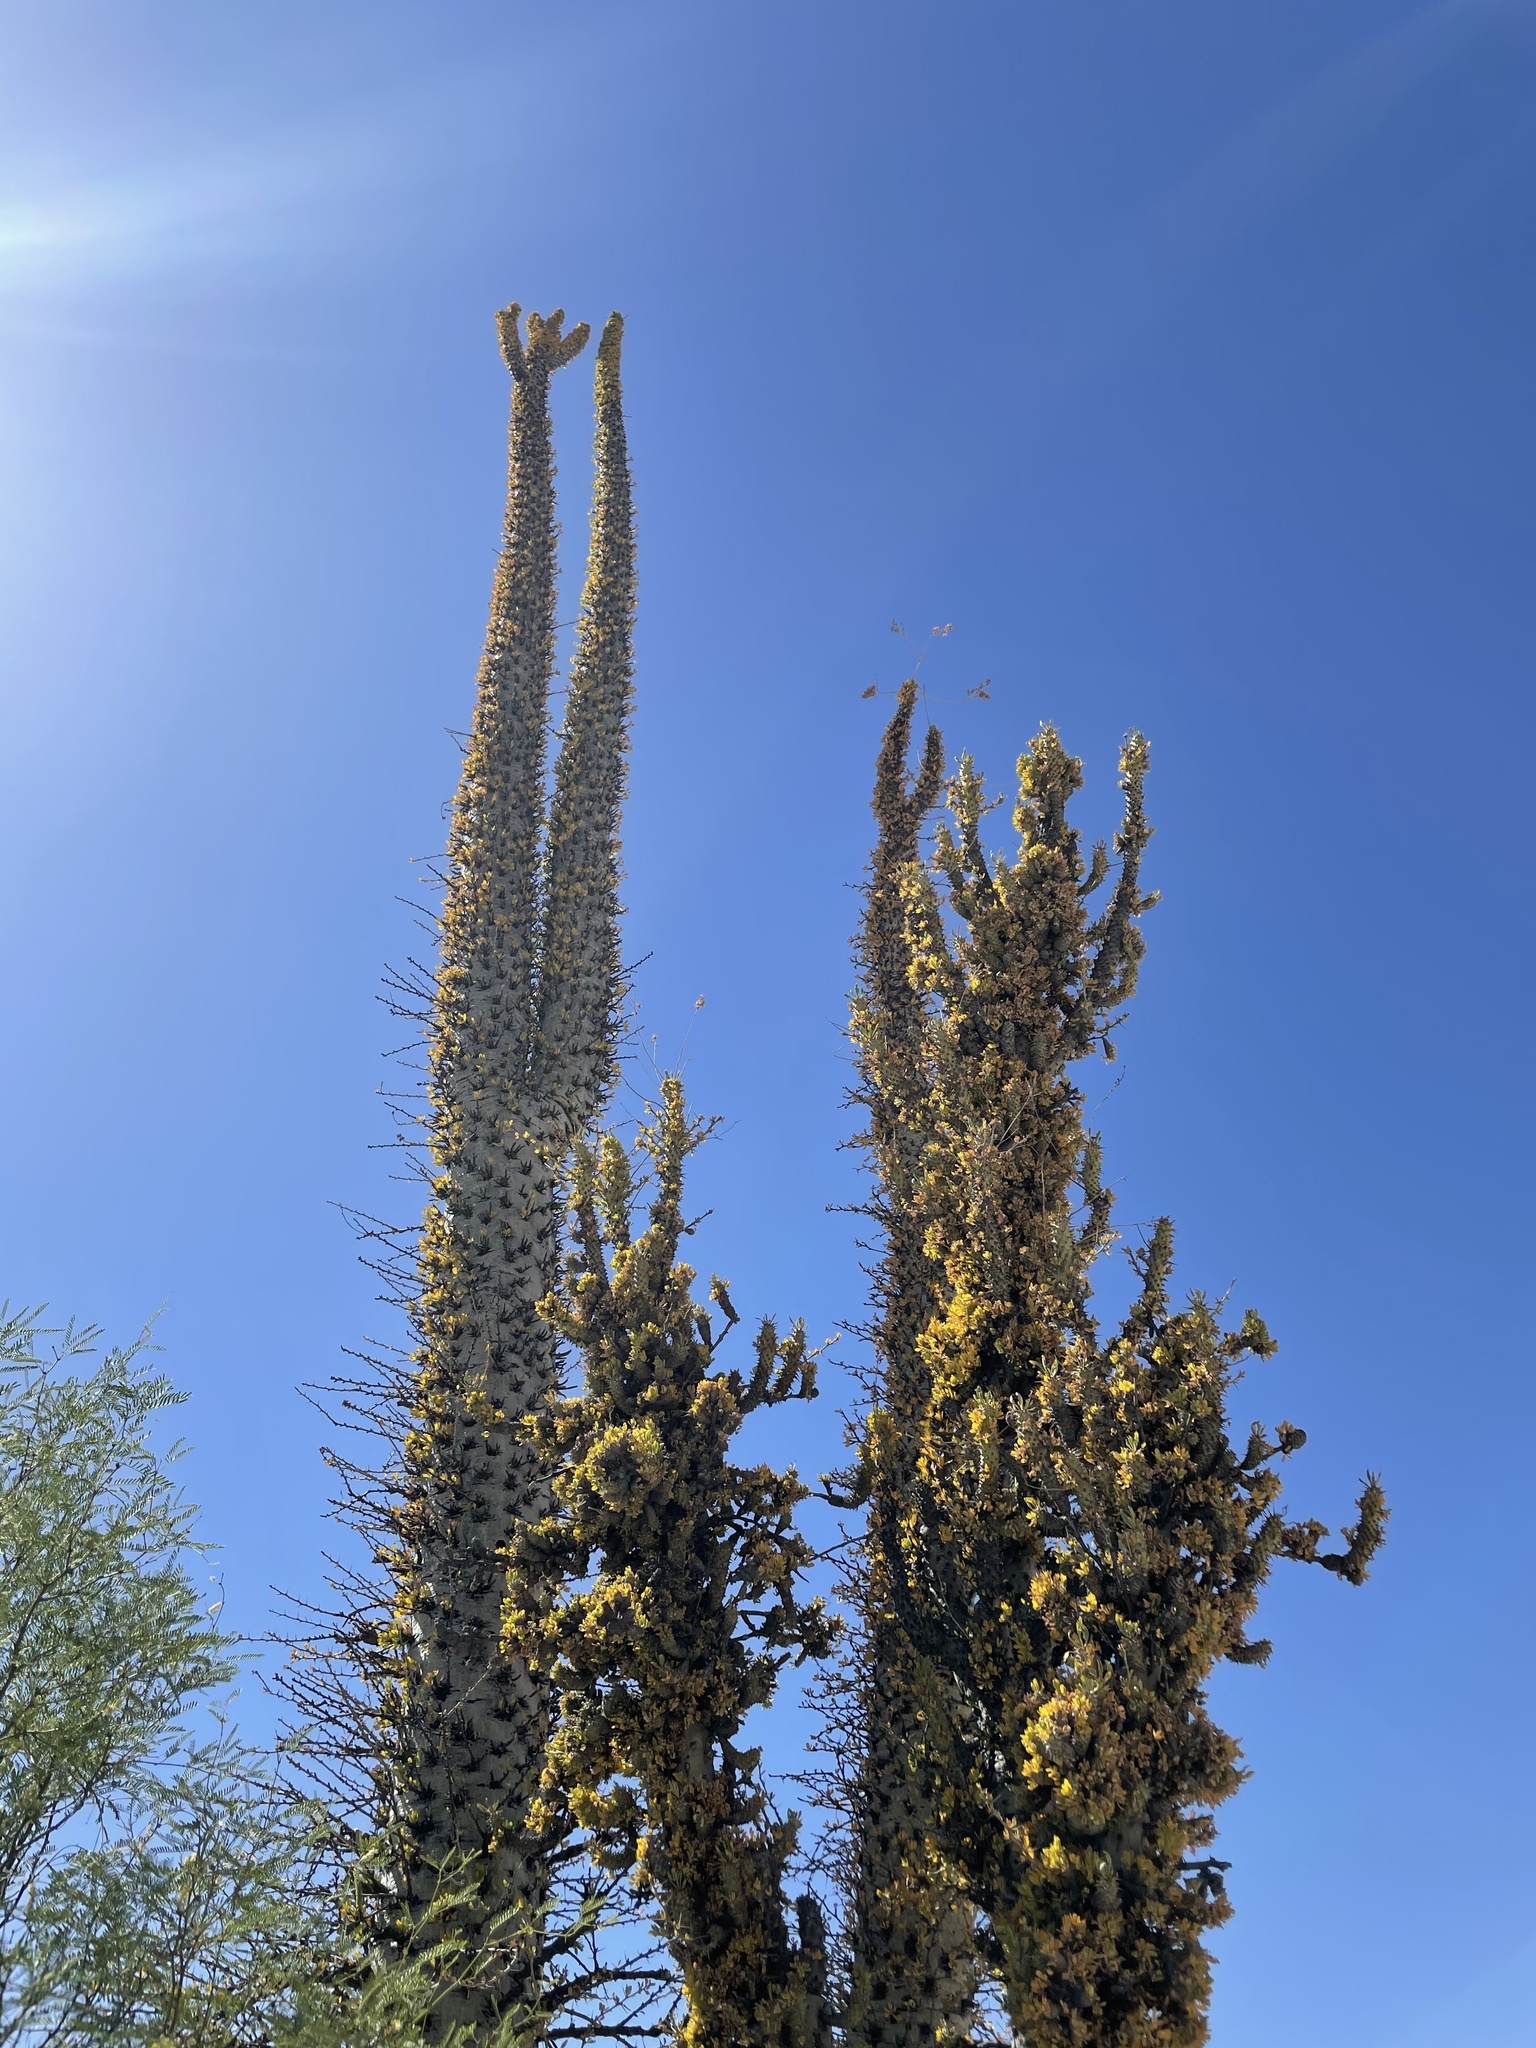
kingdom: Plantae
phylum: Tracheophyta
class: Magnoliopsida
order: Ericales
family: Fouquieriaceae
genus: Fouquieria
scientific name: Fouquieria columnaris
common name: Boojumtree
